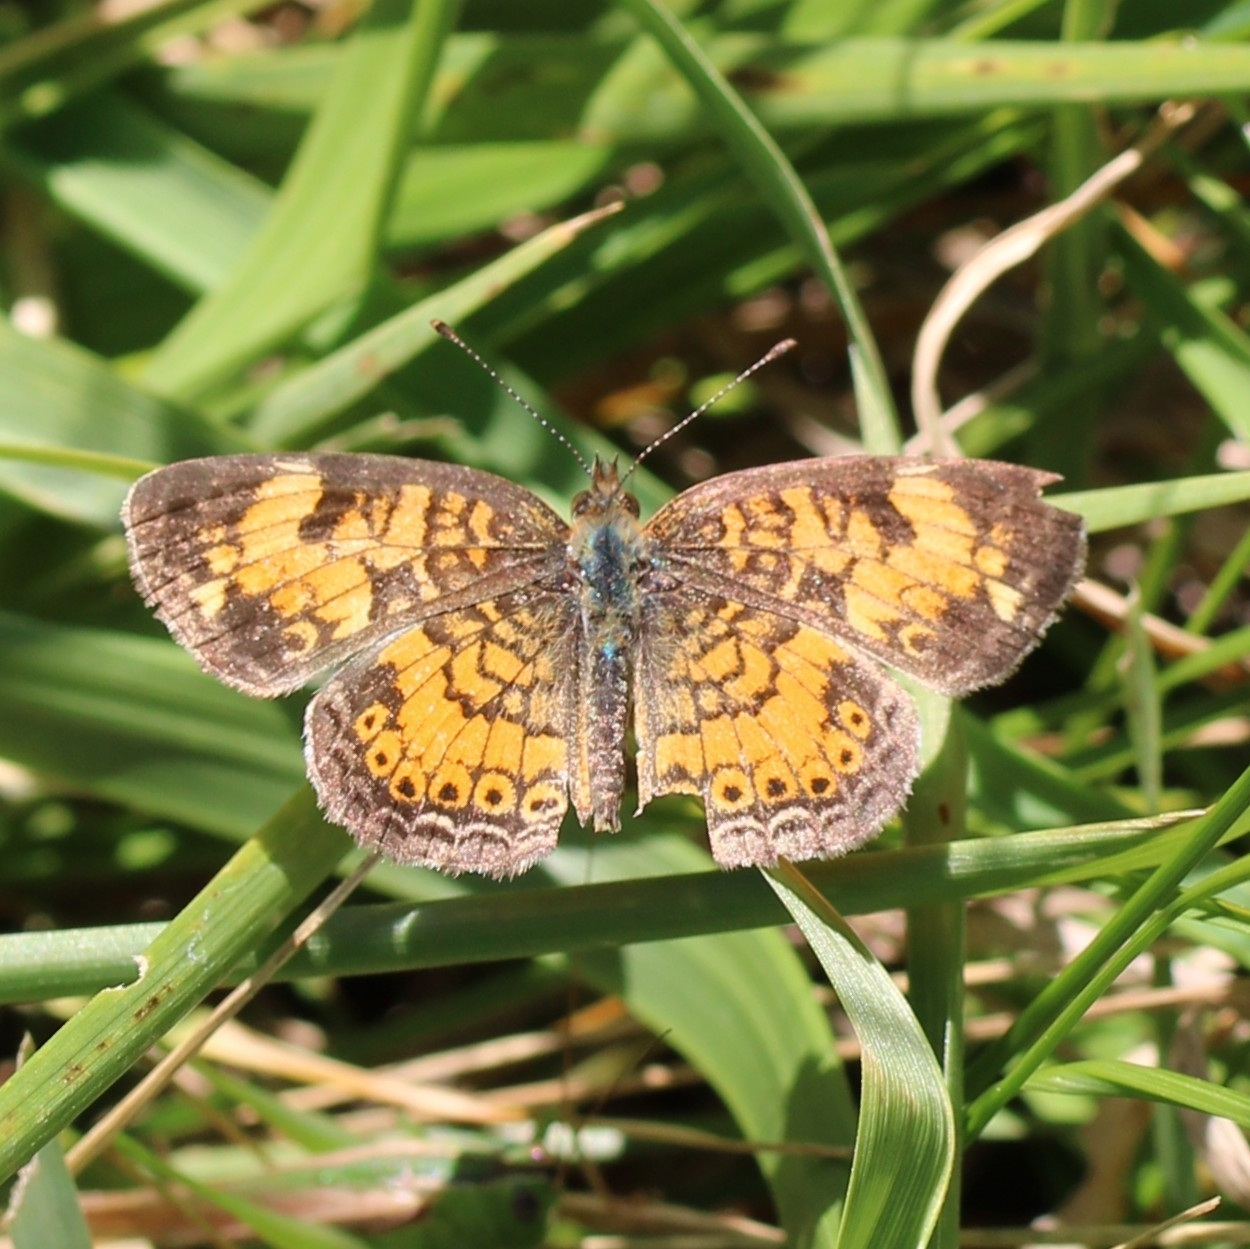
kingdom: Animalia
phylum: Arthropoda
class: Insecta
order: Lepidoptera
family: Nymphalidae
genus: Phyciodes
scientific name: Phyciodes tharos
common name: Pearl crescent
